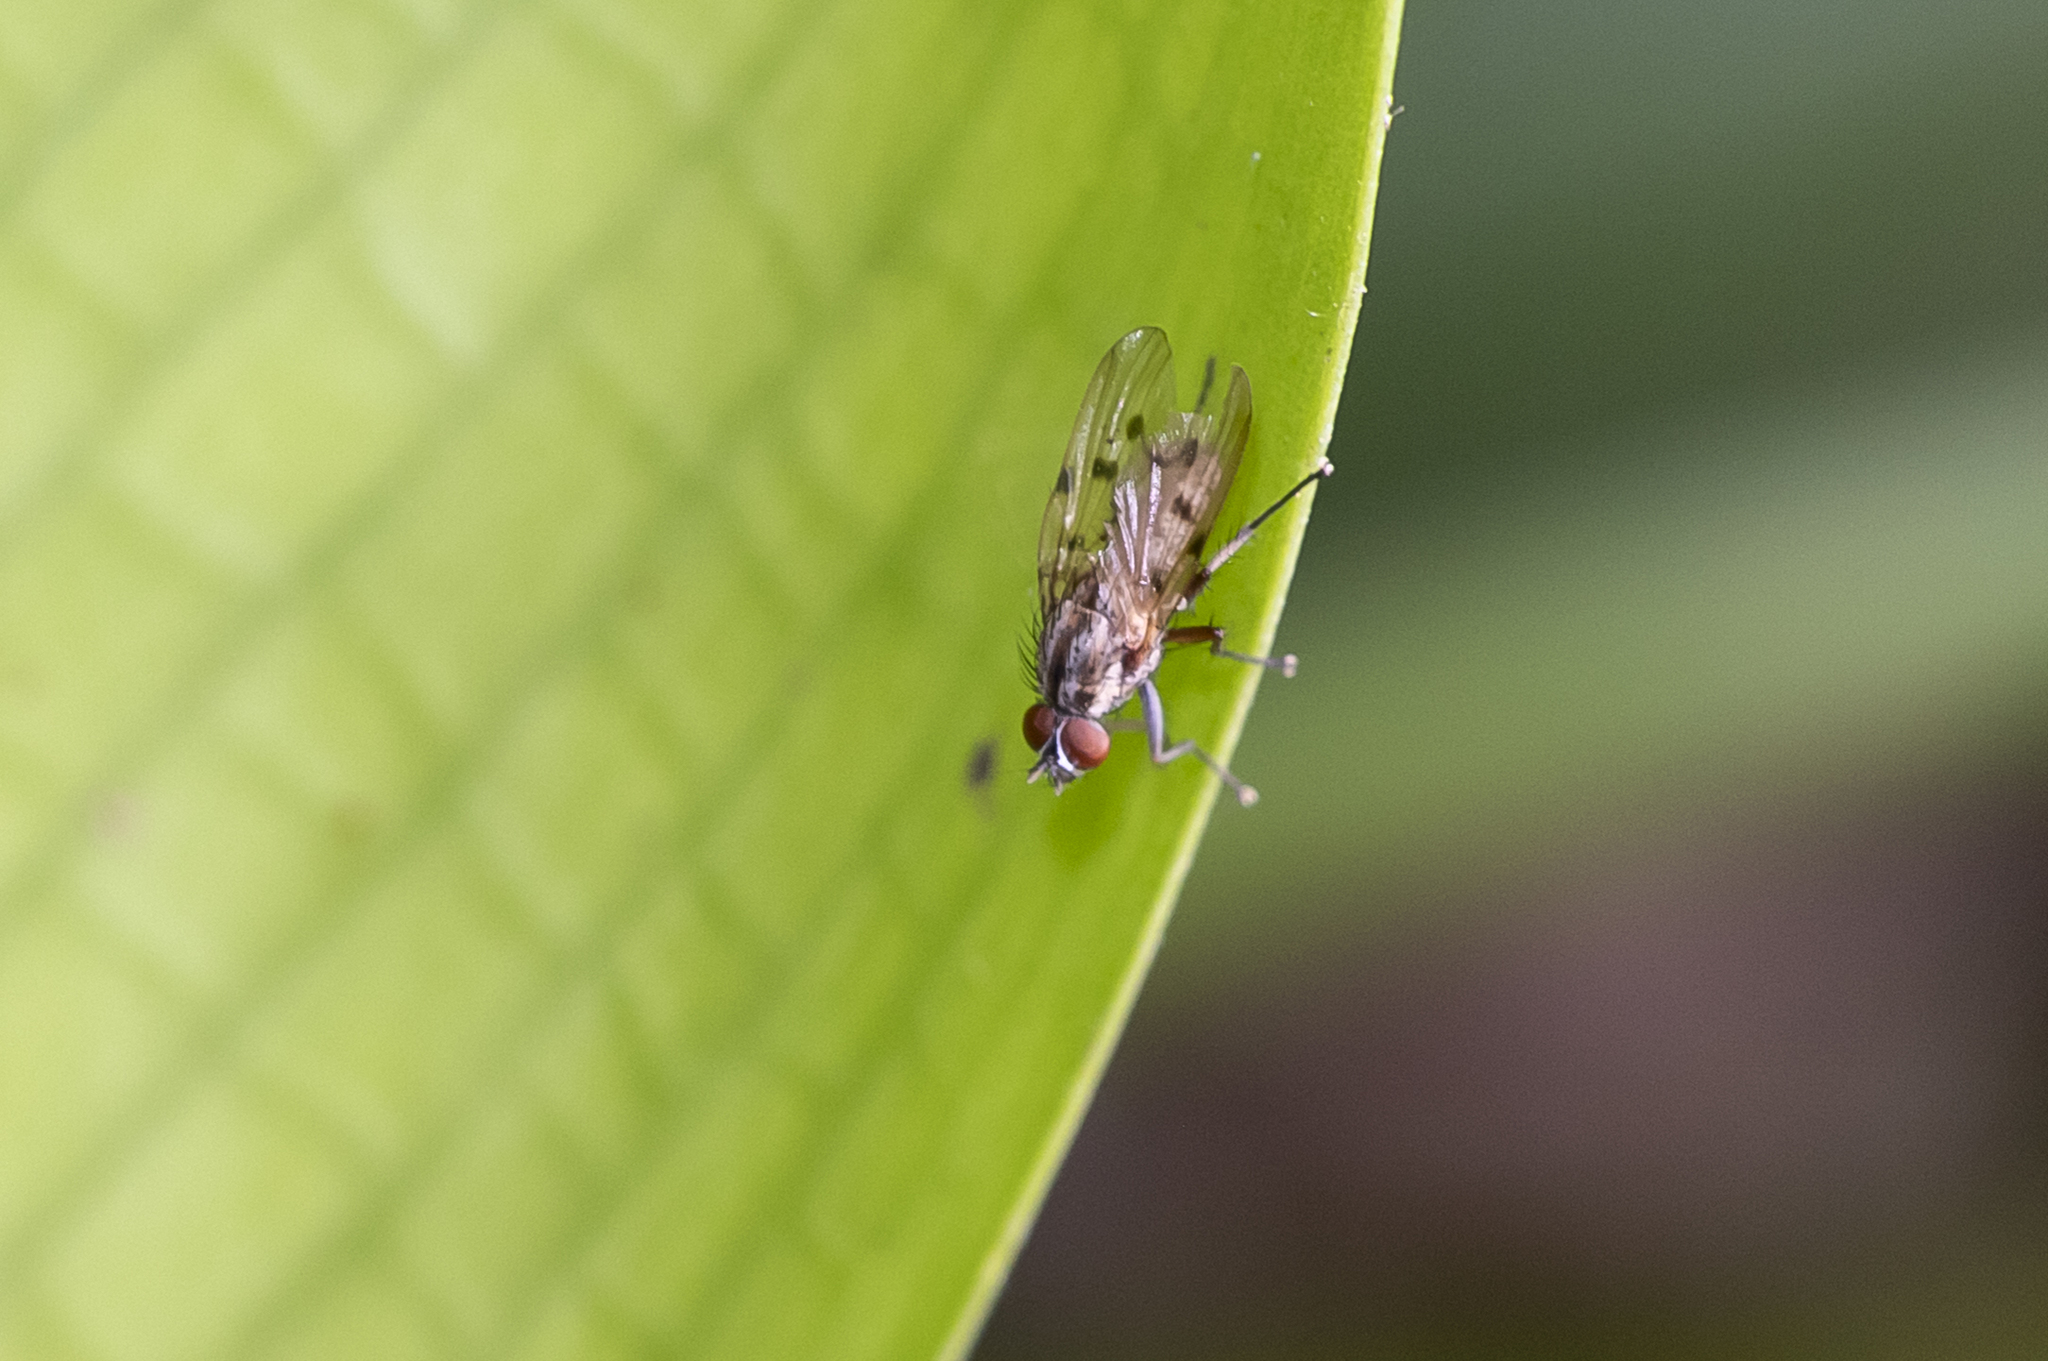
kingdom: Animalia
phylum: Arthropoda
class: Insecta
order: Diptera
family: Anthomyiidae
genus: Anthomyia
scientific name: Anthomyia punctipennis
